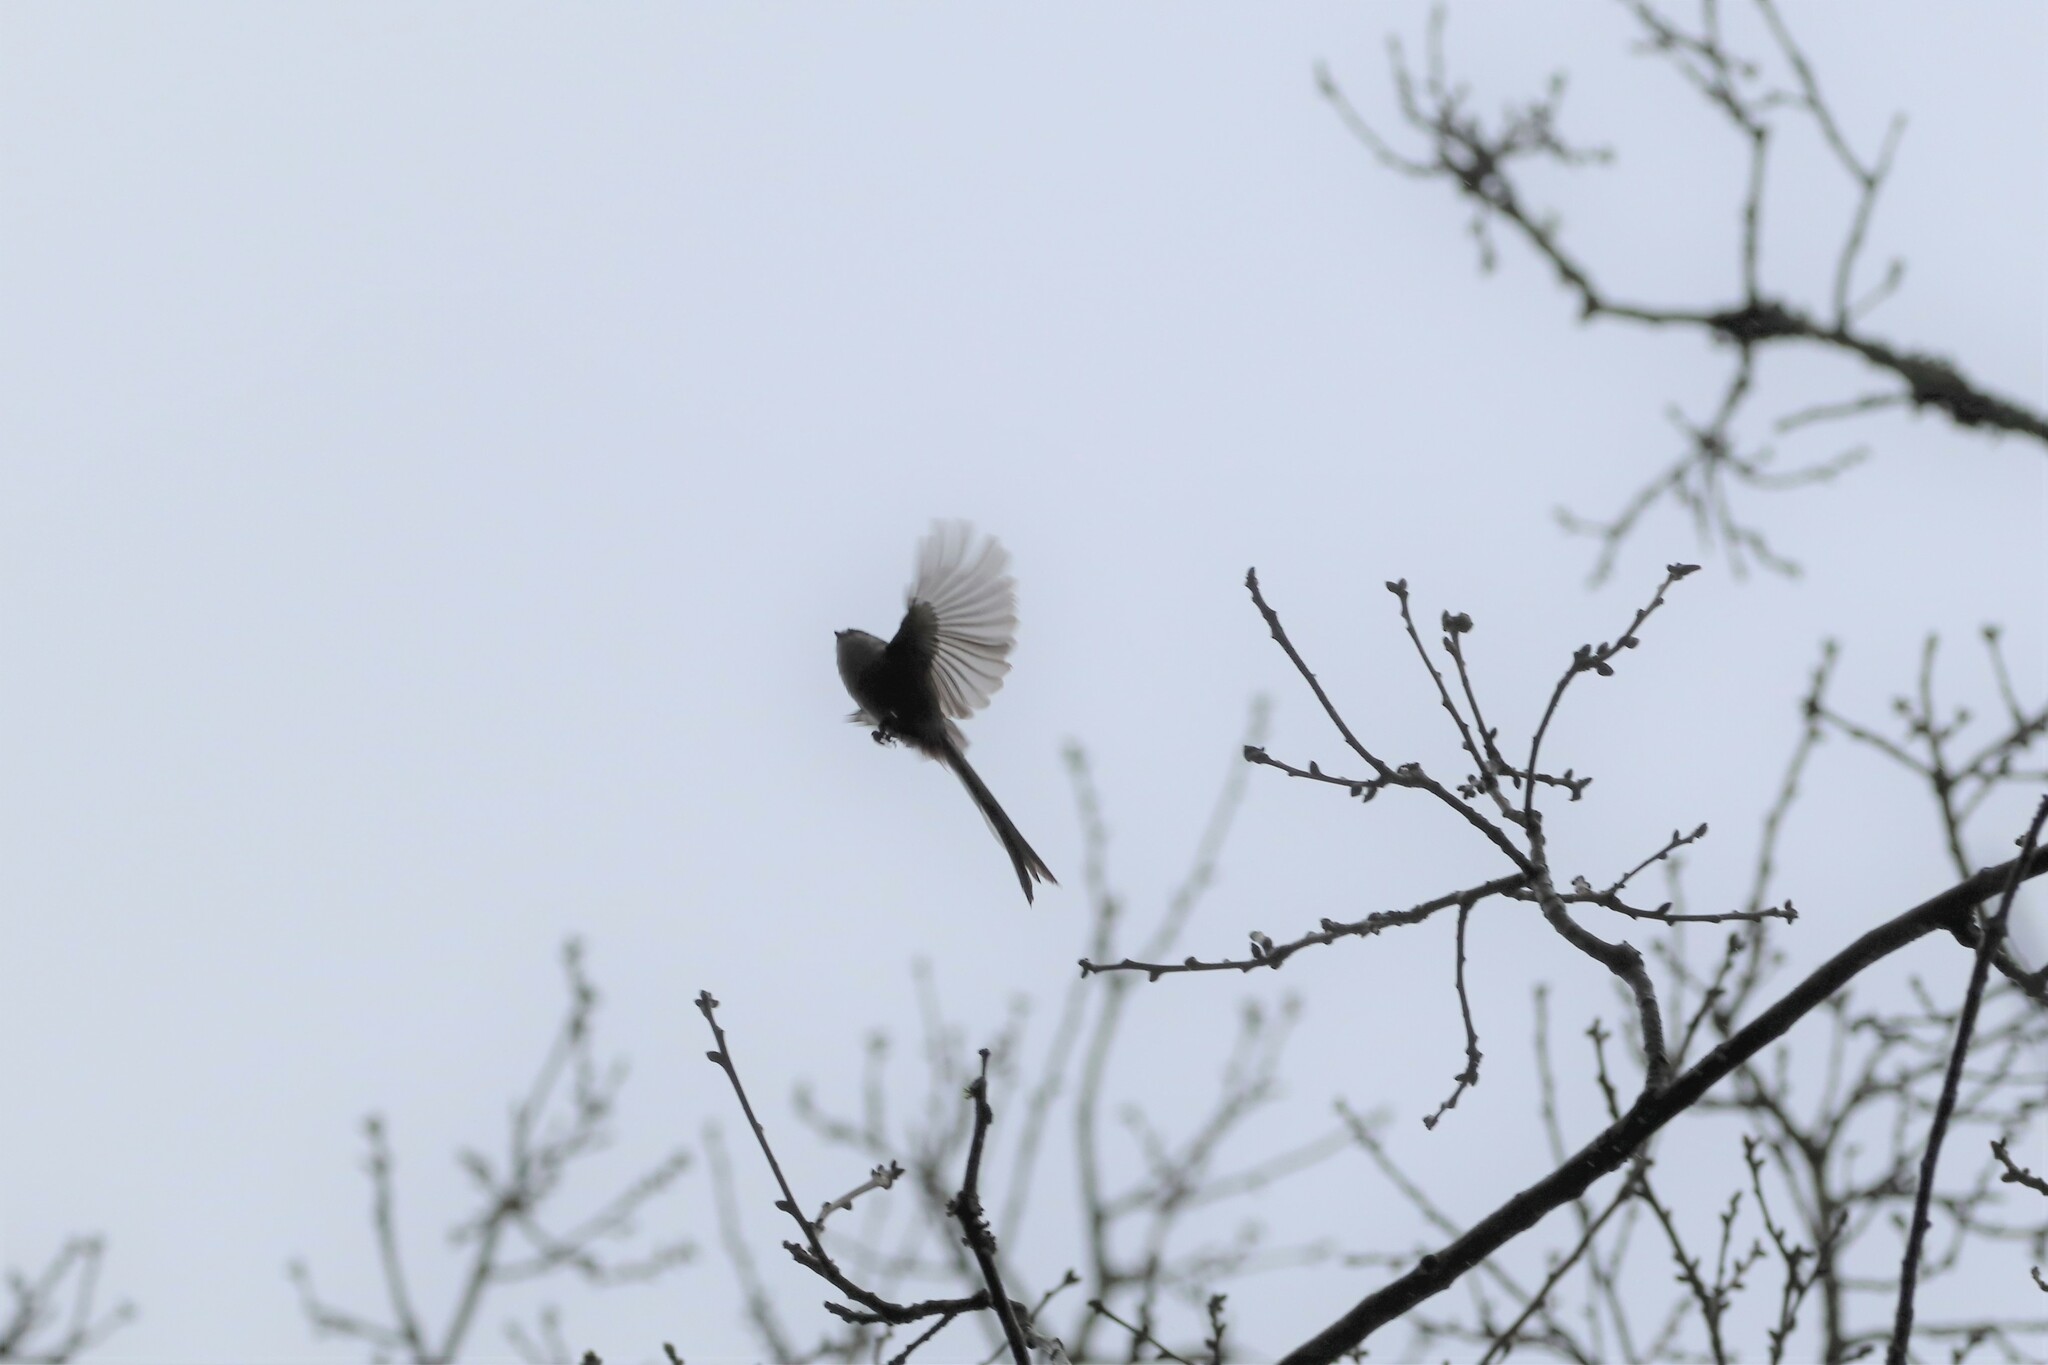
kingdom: Animalia
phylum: Chordata
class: Aves
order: Passeriformes
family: Aegithalidae
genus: Aegithalos
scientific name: Aegithalos caudatus
